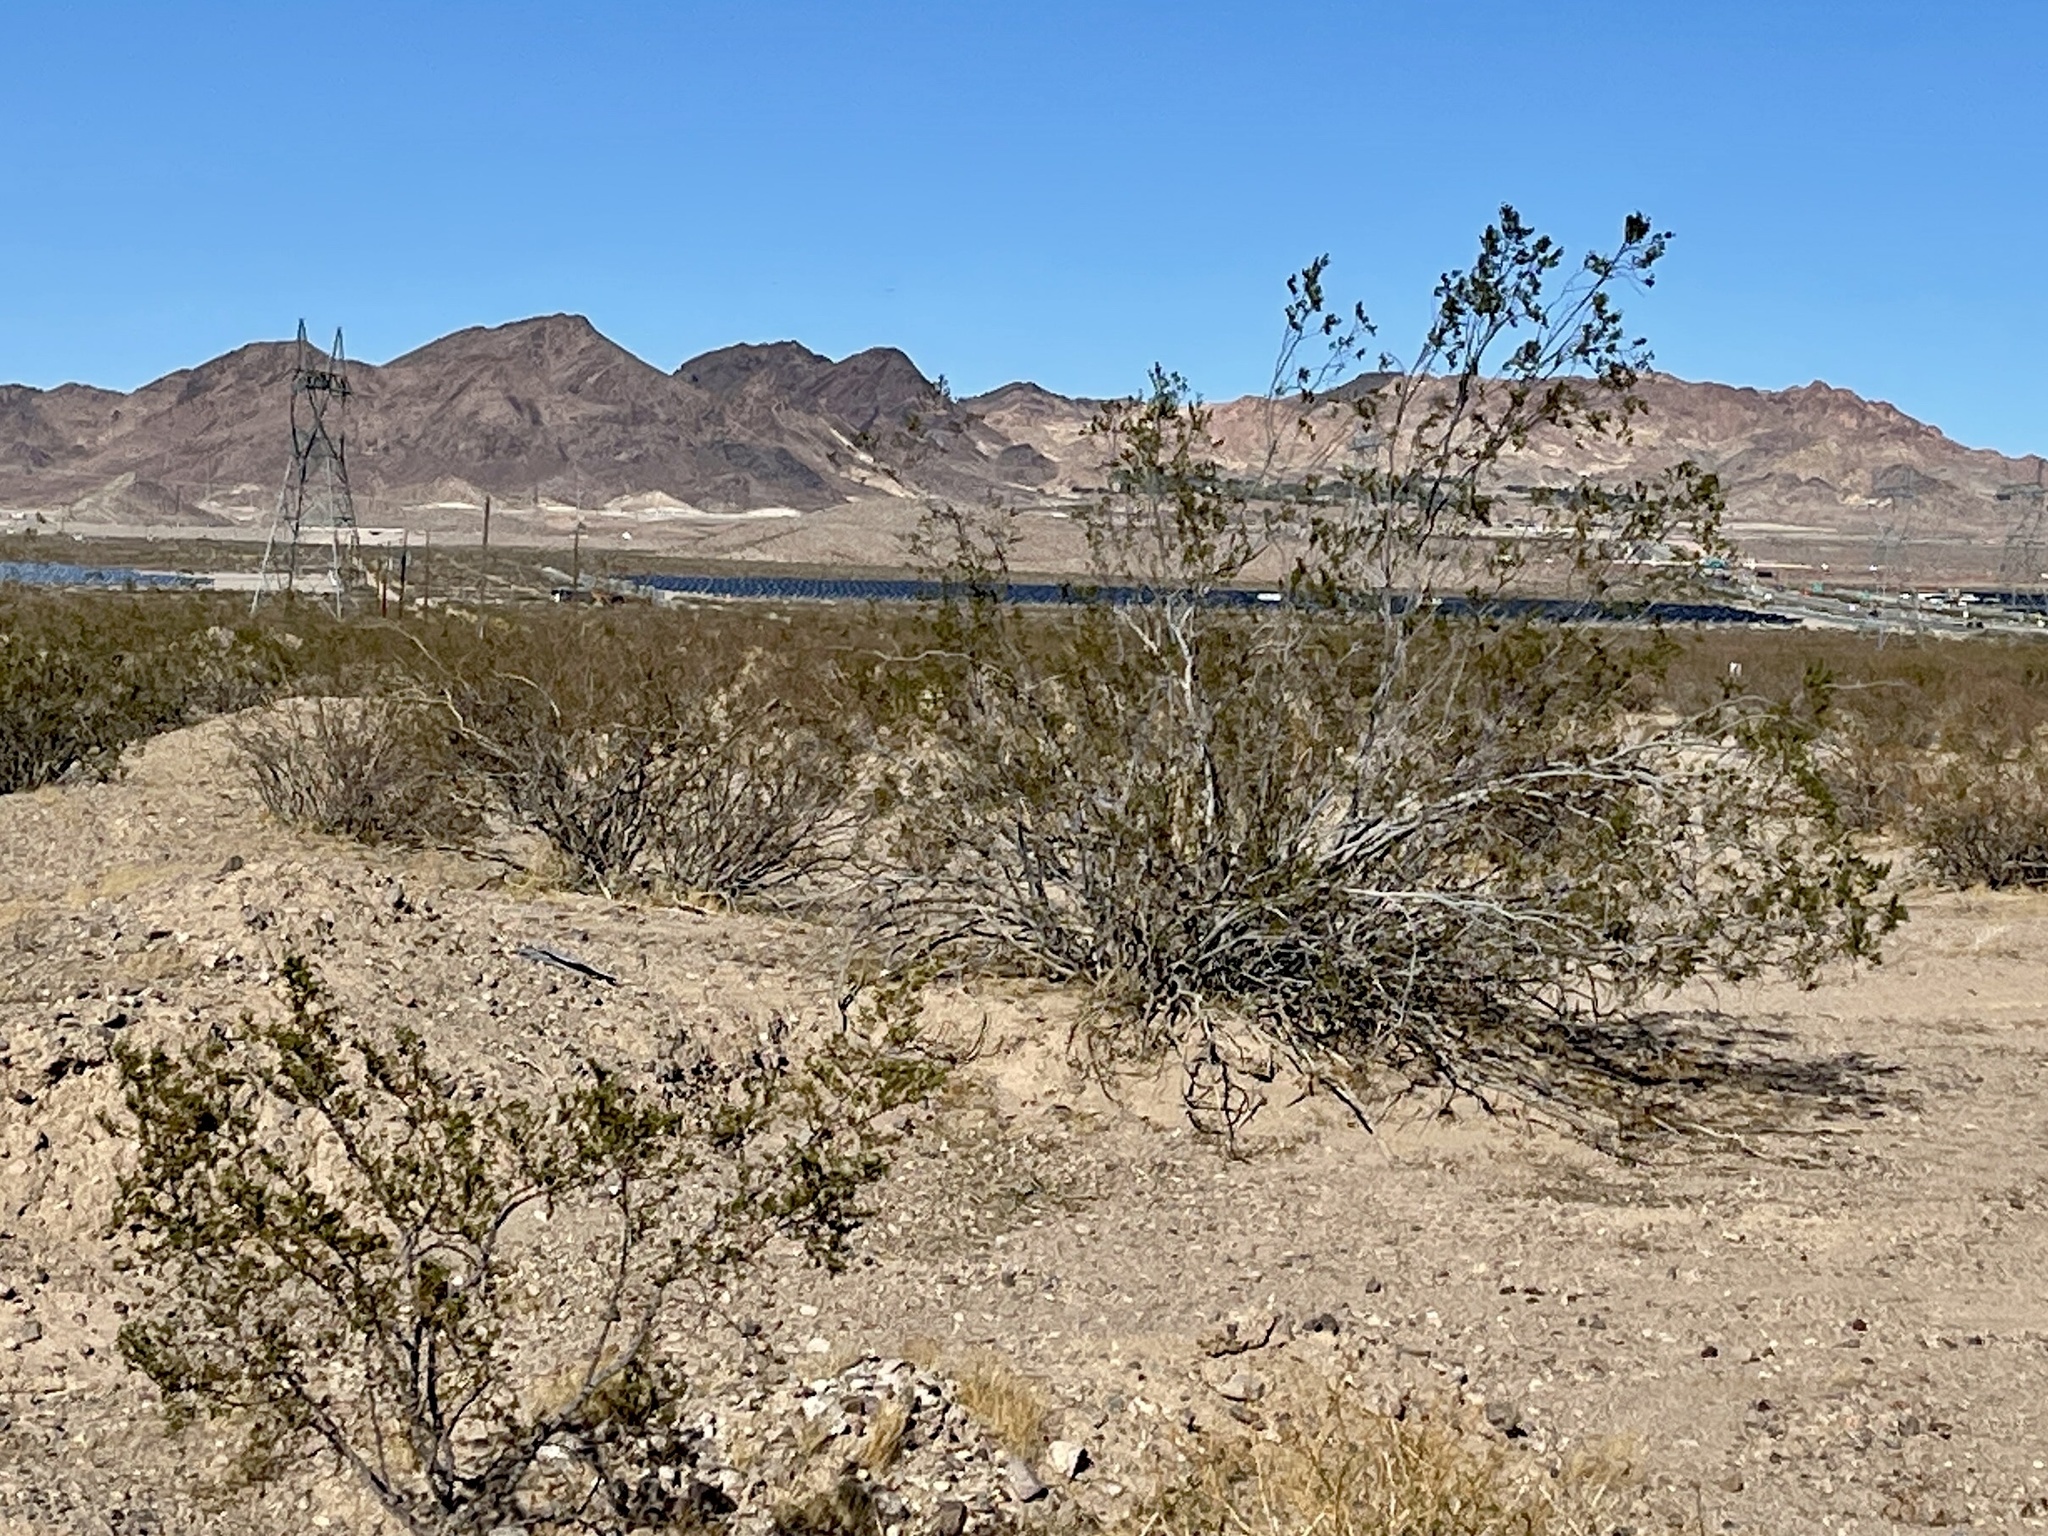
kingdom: Plantae
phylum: Tracheophyta
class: Magnoliopsida
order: Zygophyllales
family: Zygophyllaceae
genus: Larrea
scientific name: Larrea tridentata
